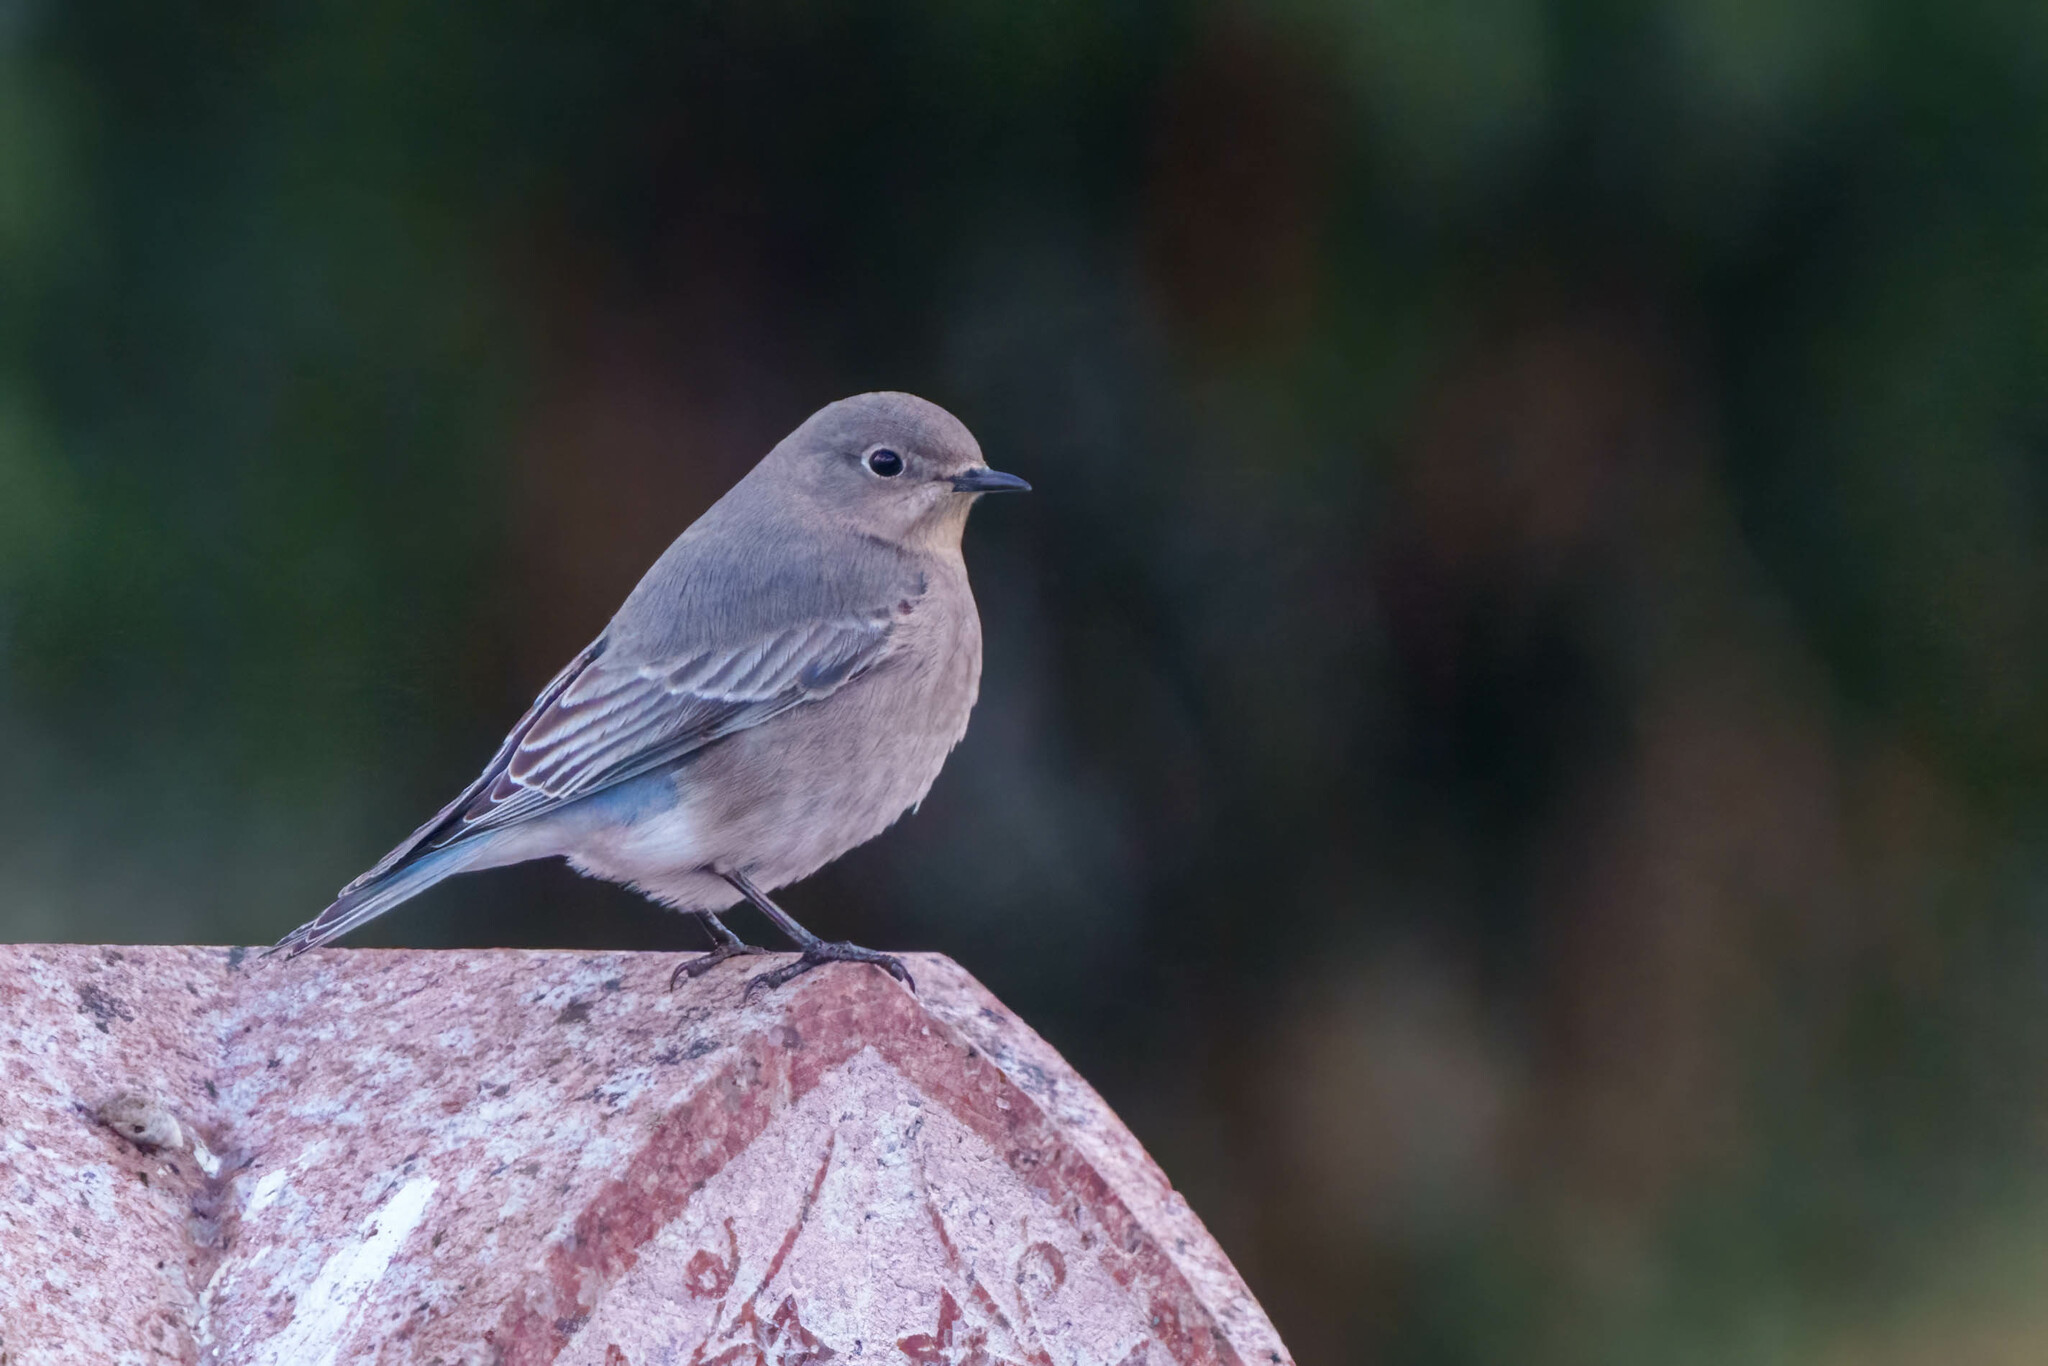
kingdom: Animalia
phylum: Chordata
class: Aves
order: Passeriformes
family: Turdidae
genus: Sialia
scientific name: Sialia currucoides
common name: Mountain bluebird
